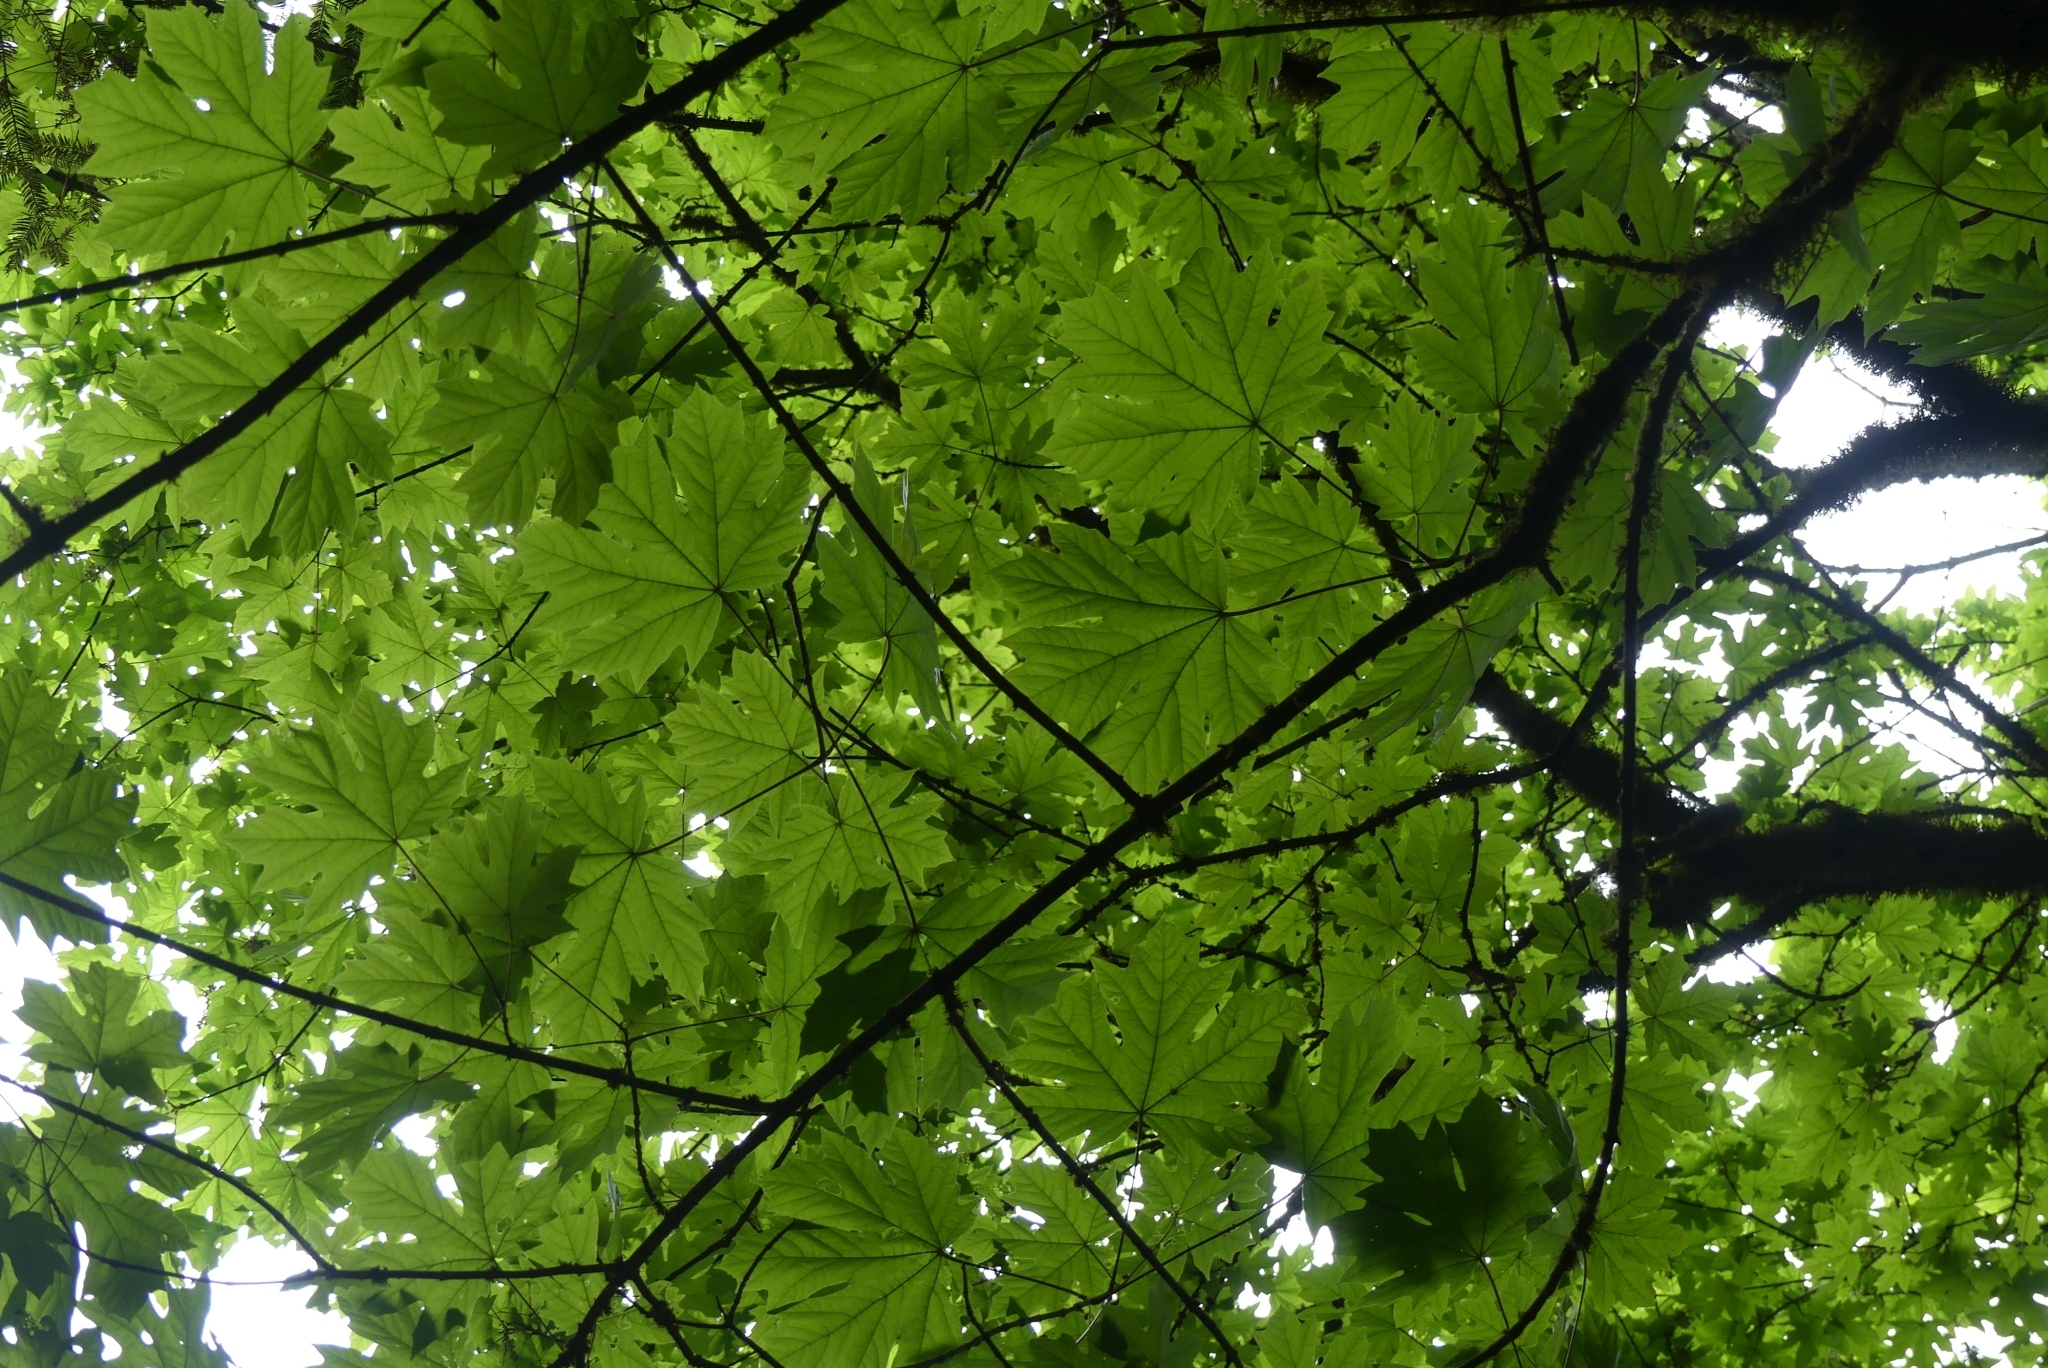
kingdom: Plantae
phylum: Tracheophyta
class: Magnoliopsida
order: Sapindales
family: Sapindaceae
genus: Acer
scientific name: Acer macrophyllum
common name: Oregon maple
